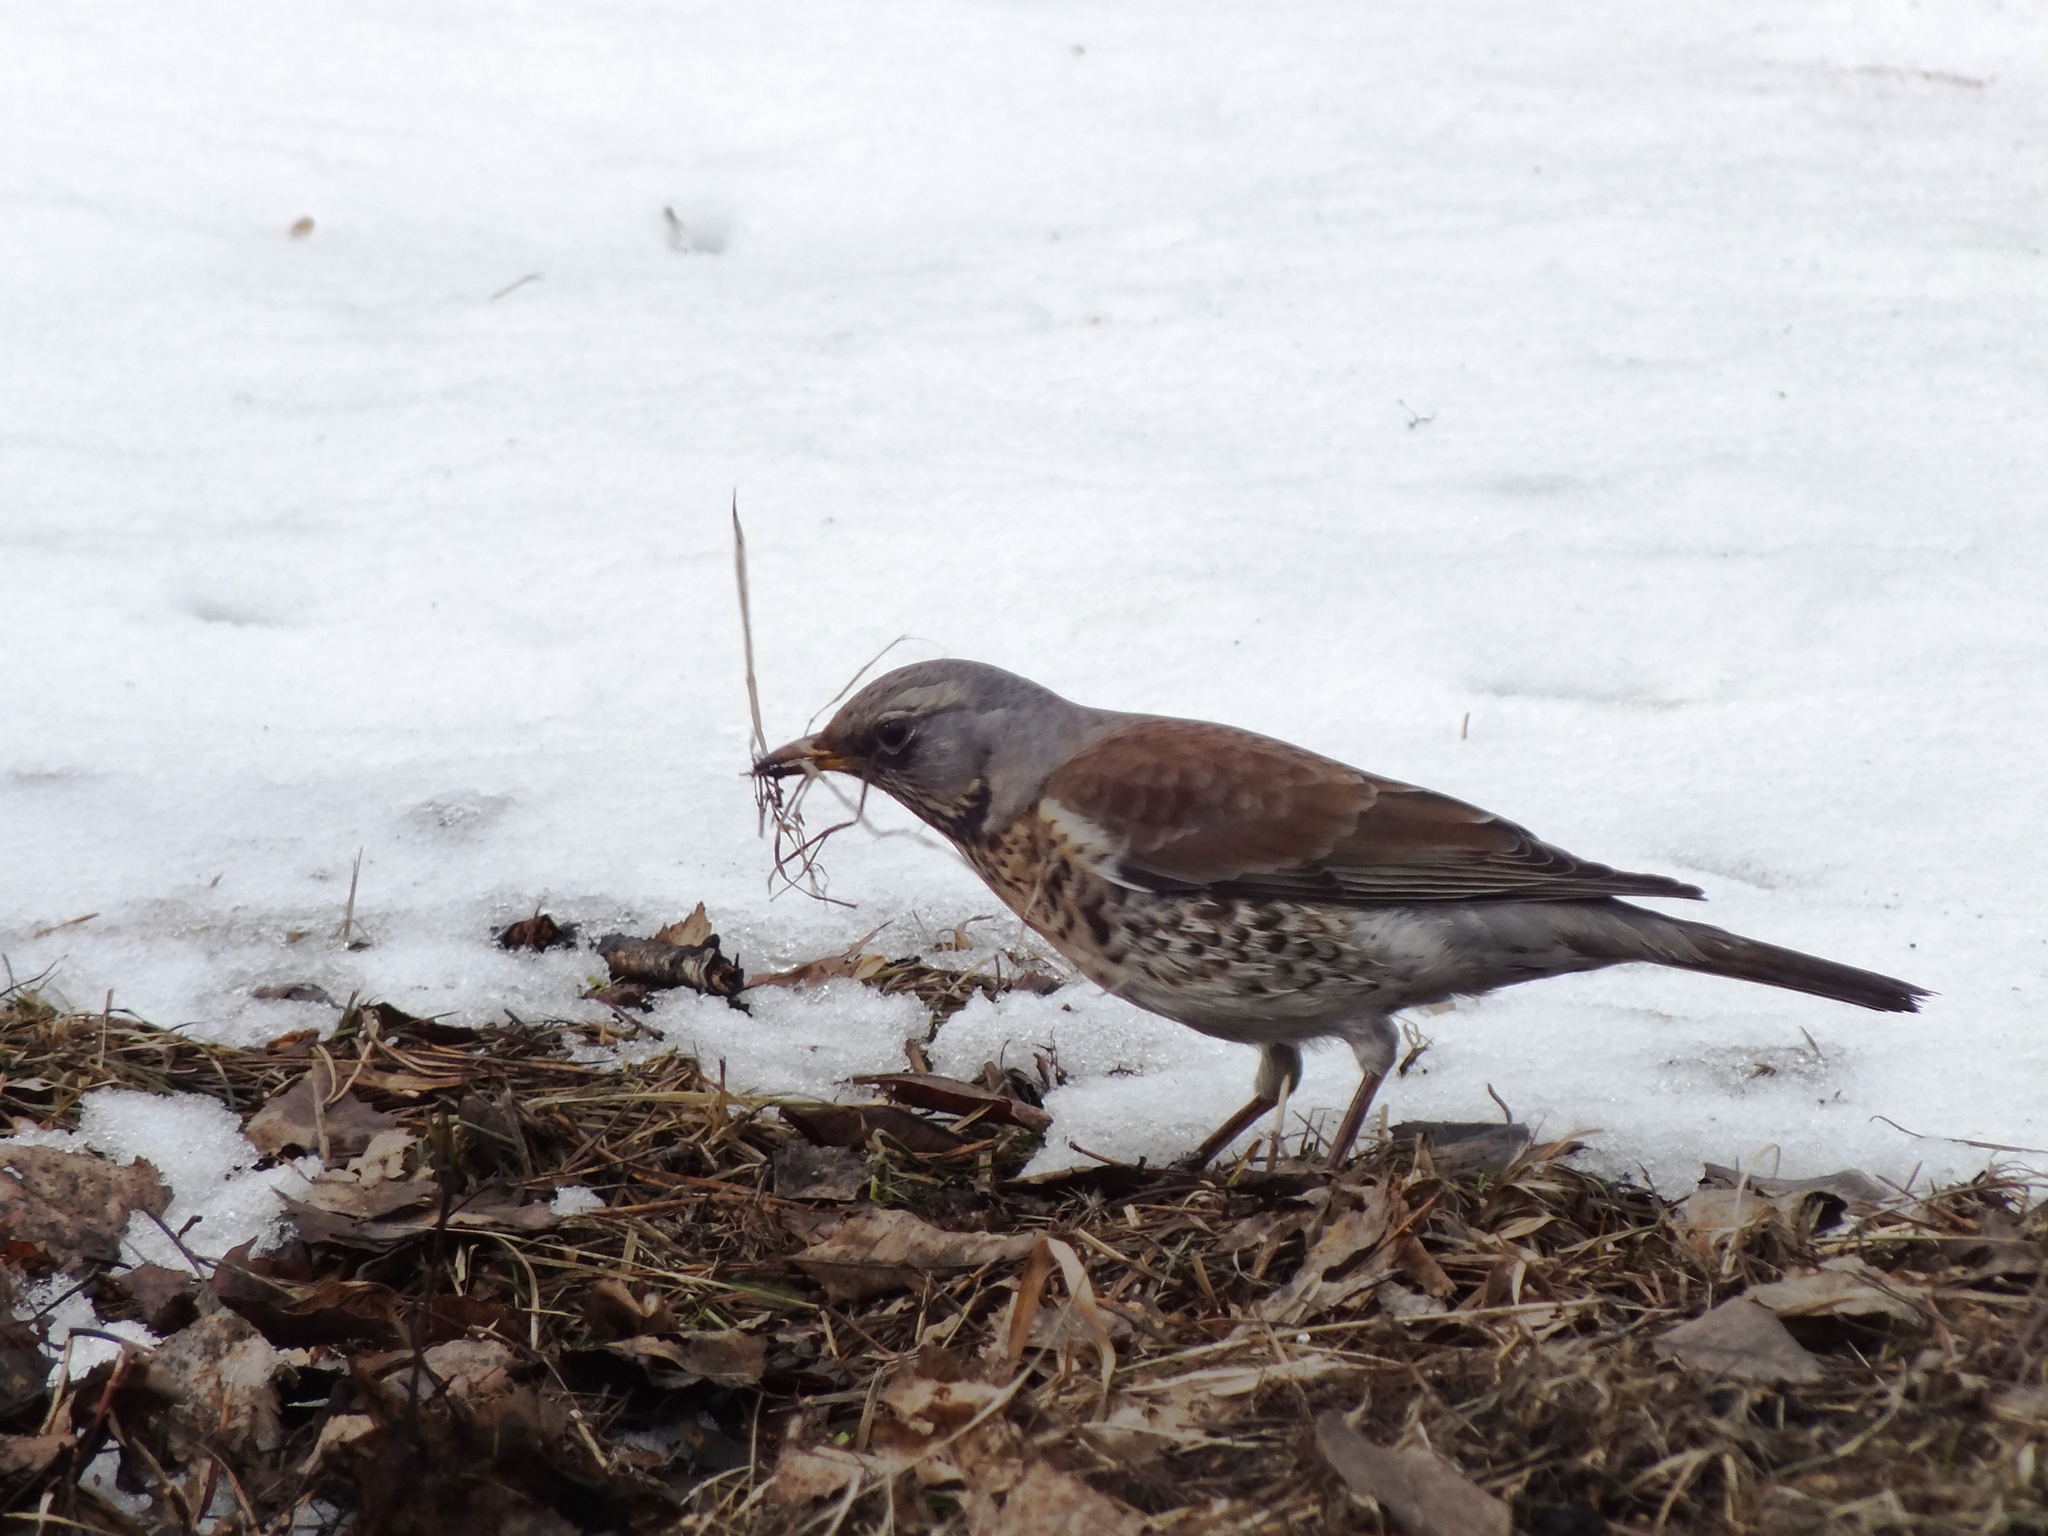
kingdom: Animalia
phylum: Chordata
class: Aves
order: Passeriformes
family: Turdidae
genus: Turdus
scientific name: Turdus pilaris
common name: Fieldfare
